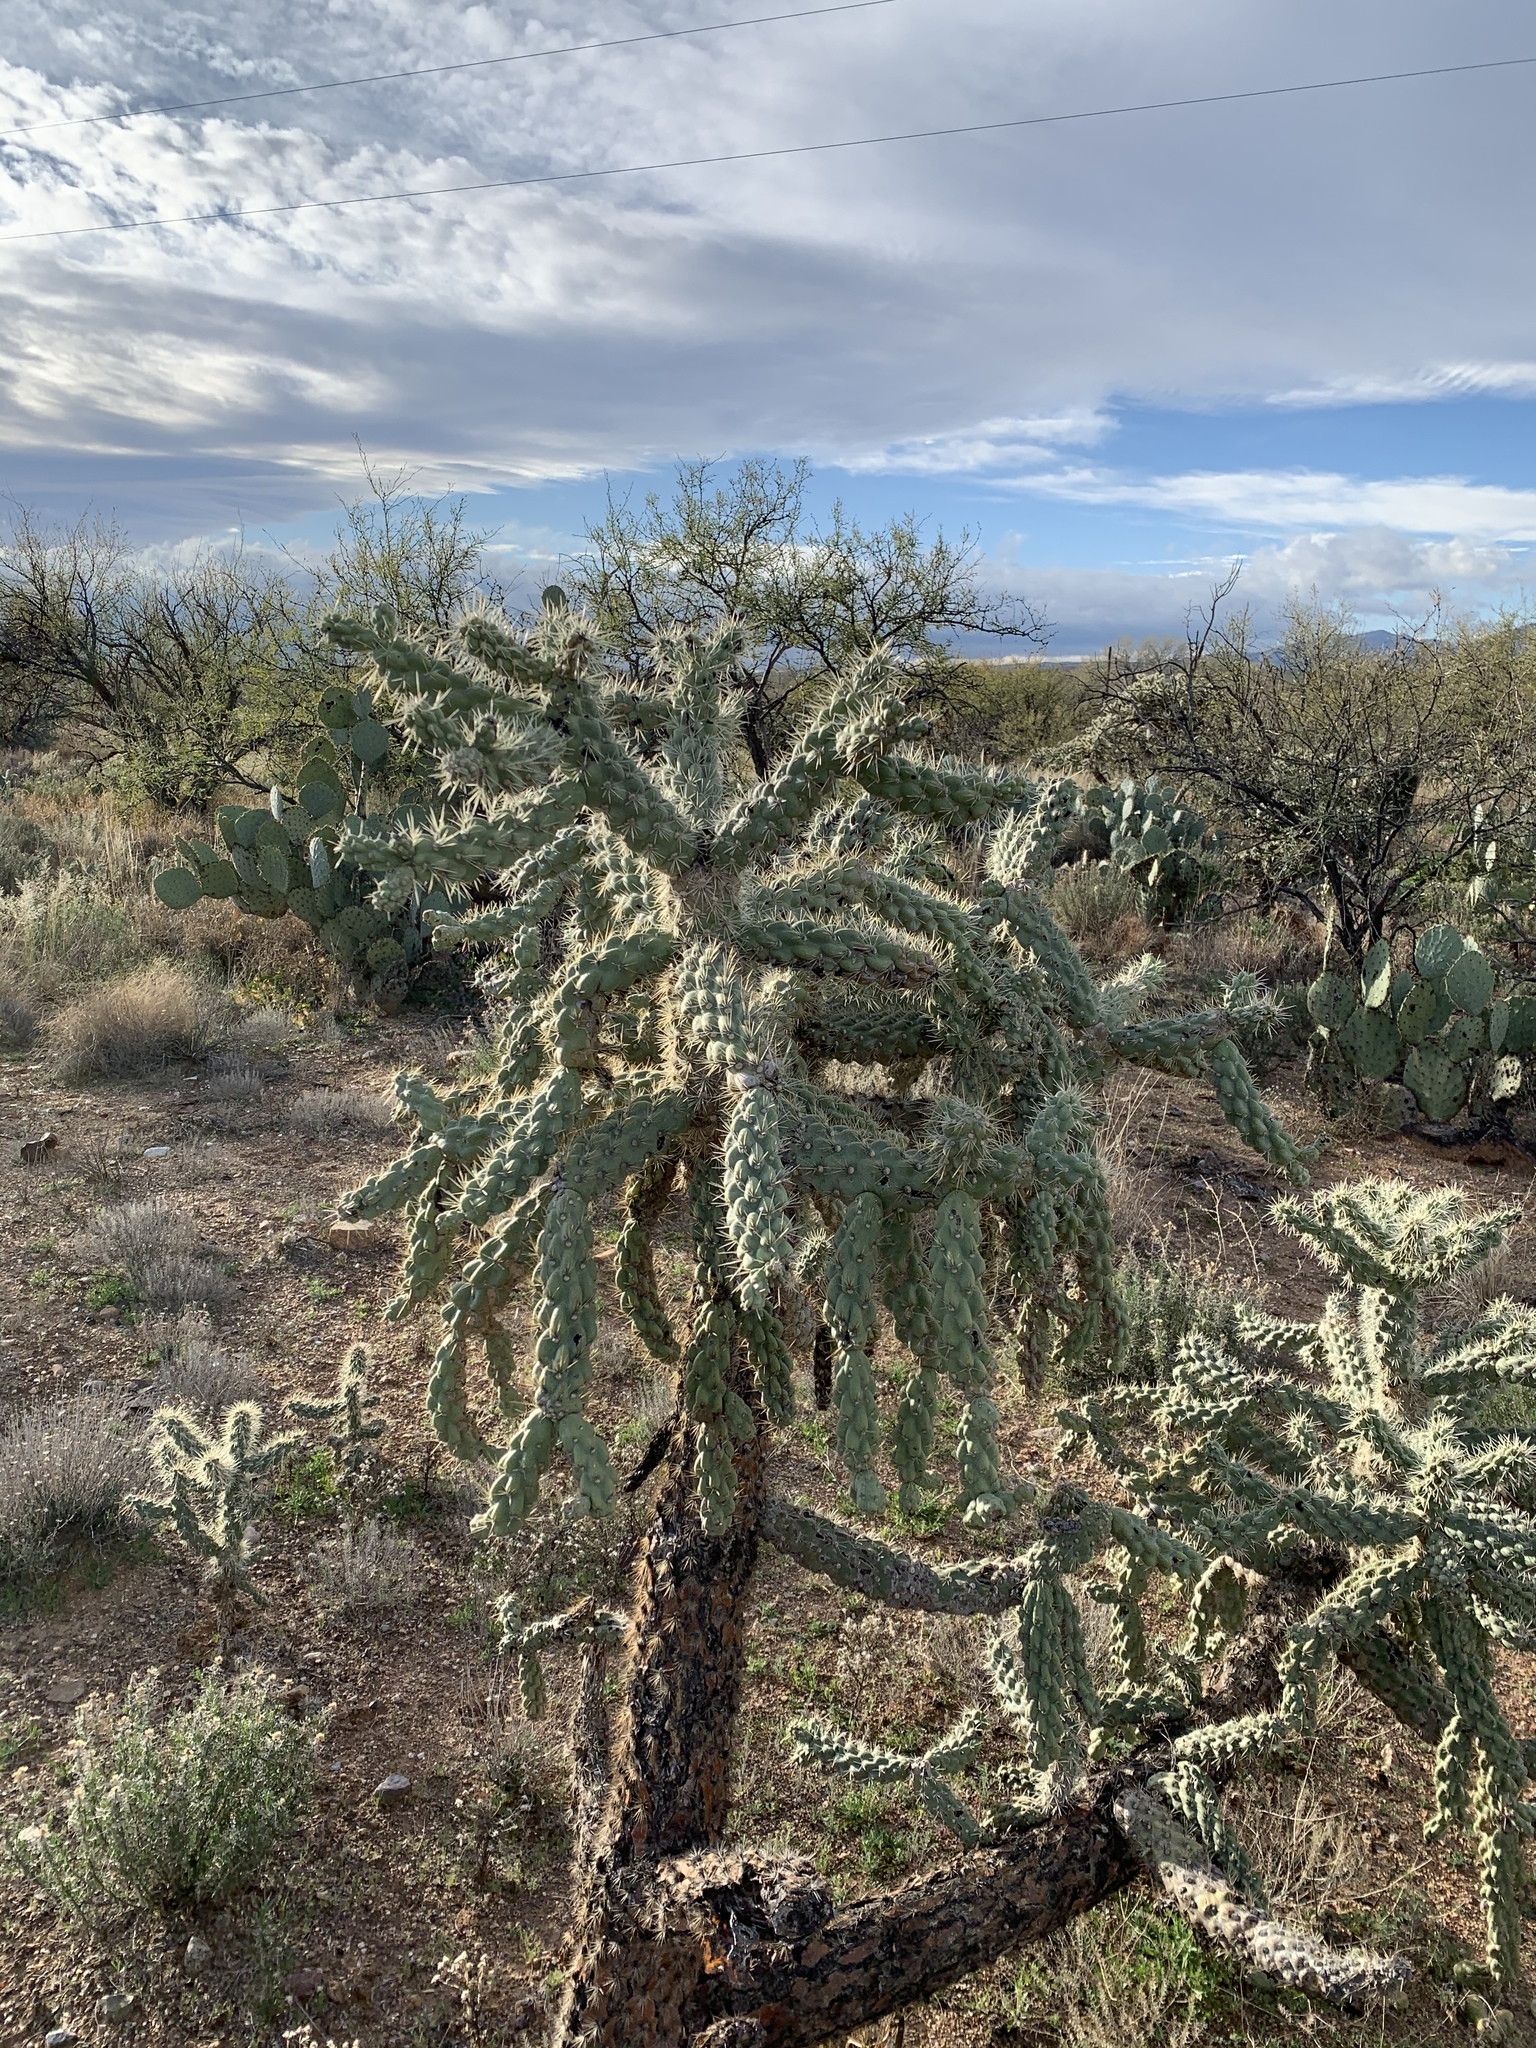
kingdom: Plantae
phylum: Tracheophyta
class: Magnoliopsida
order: Caryophyllales
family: Cactaceae
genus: Cylindropuntia
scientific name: Cylindropuntia fulgida
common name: Jumping cholla
